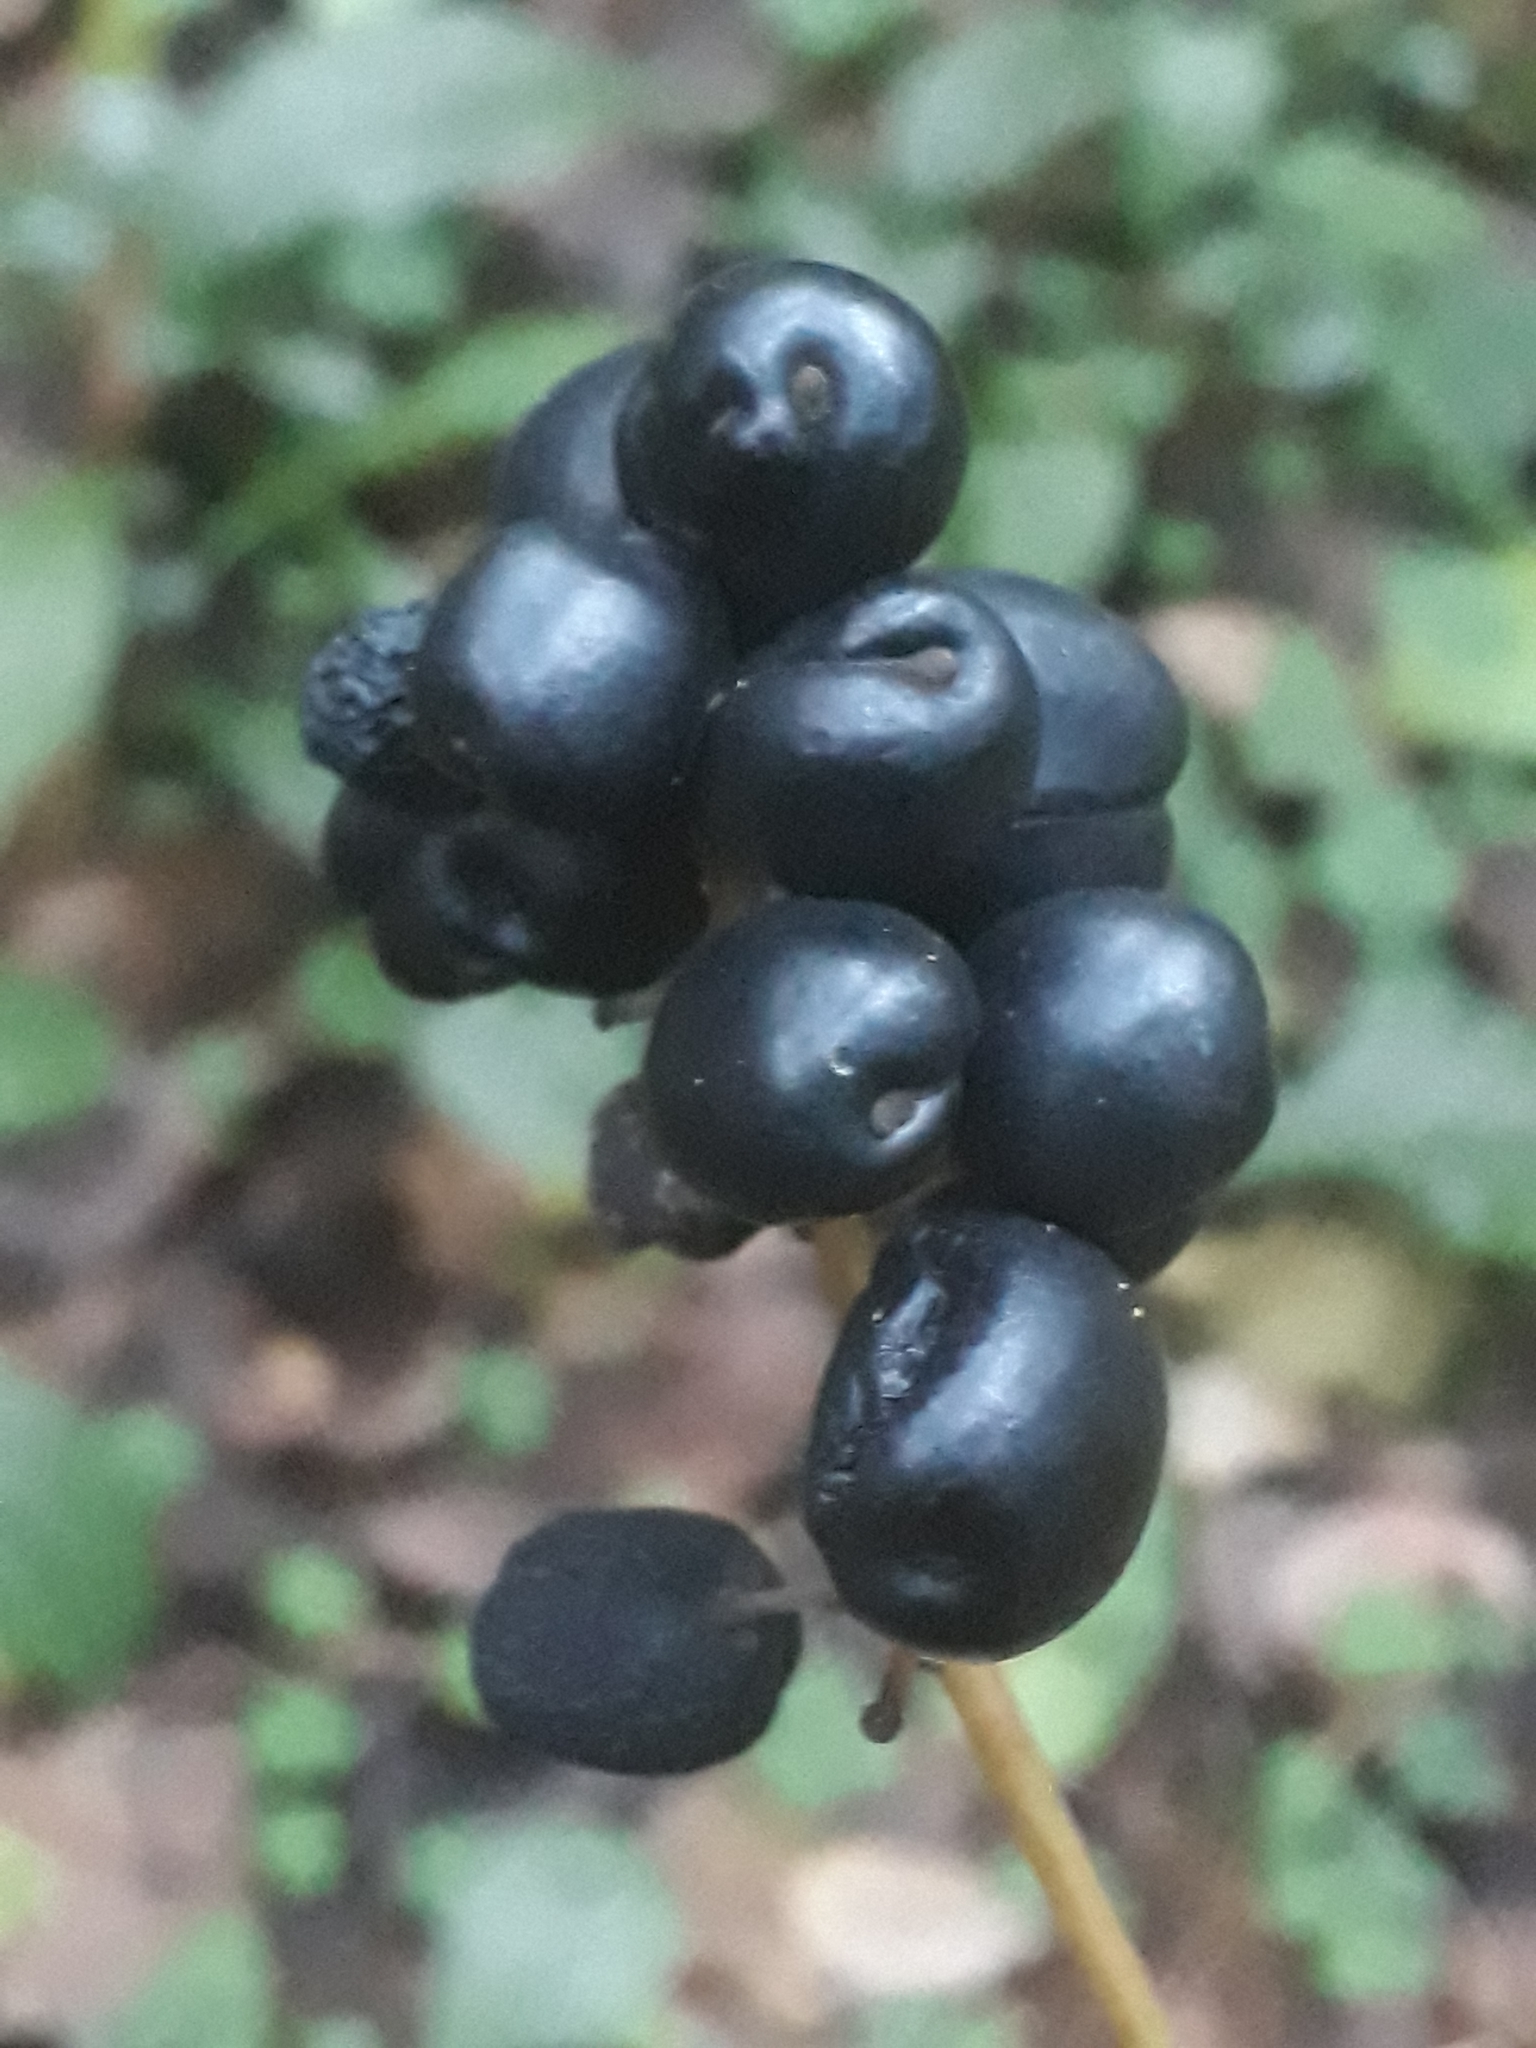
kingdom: Plantae
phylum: Tracheophyta
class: Magnoliopsida
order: Ranunculales
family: Ranunculaceae
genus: Actaea
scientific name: Actaea spicata
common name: Baneberry
